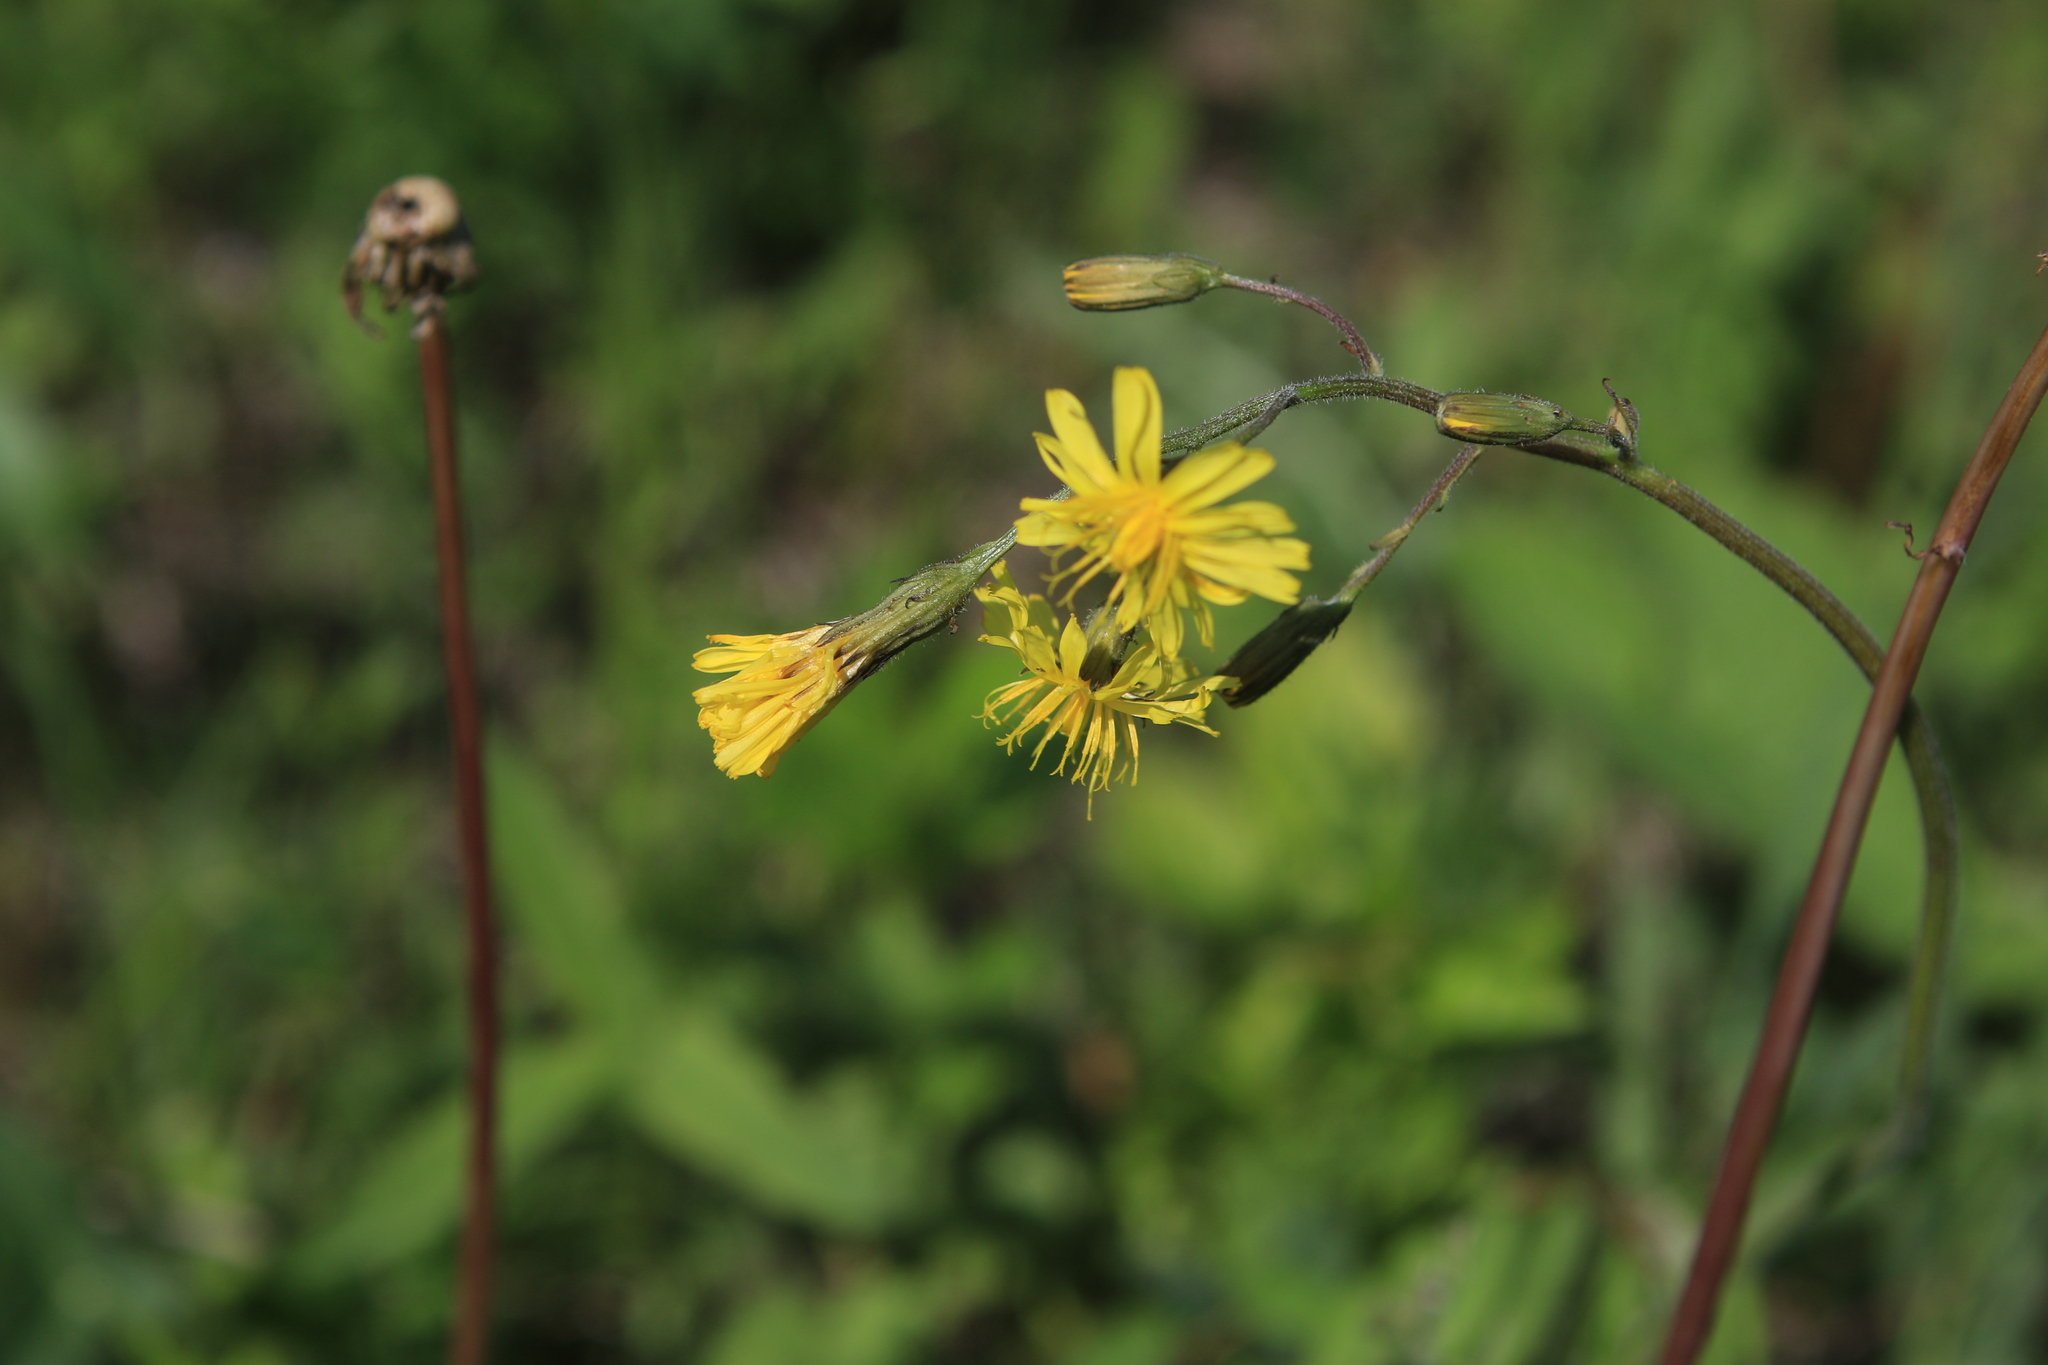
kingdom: Plantae
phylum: Tracheophyta
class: Magnoliopsida
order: Asterales
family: Asteraceae
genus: Crepis
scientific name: Crepis praemorsa
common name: Leafless hawk's-beard
